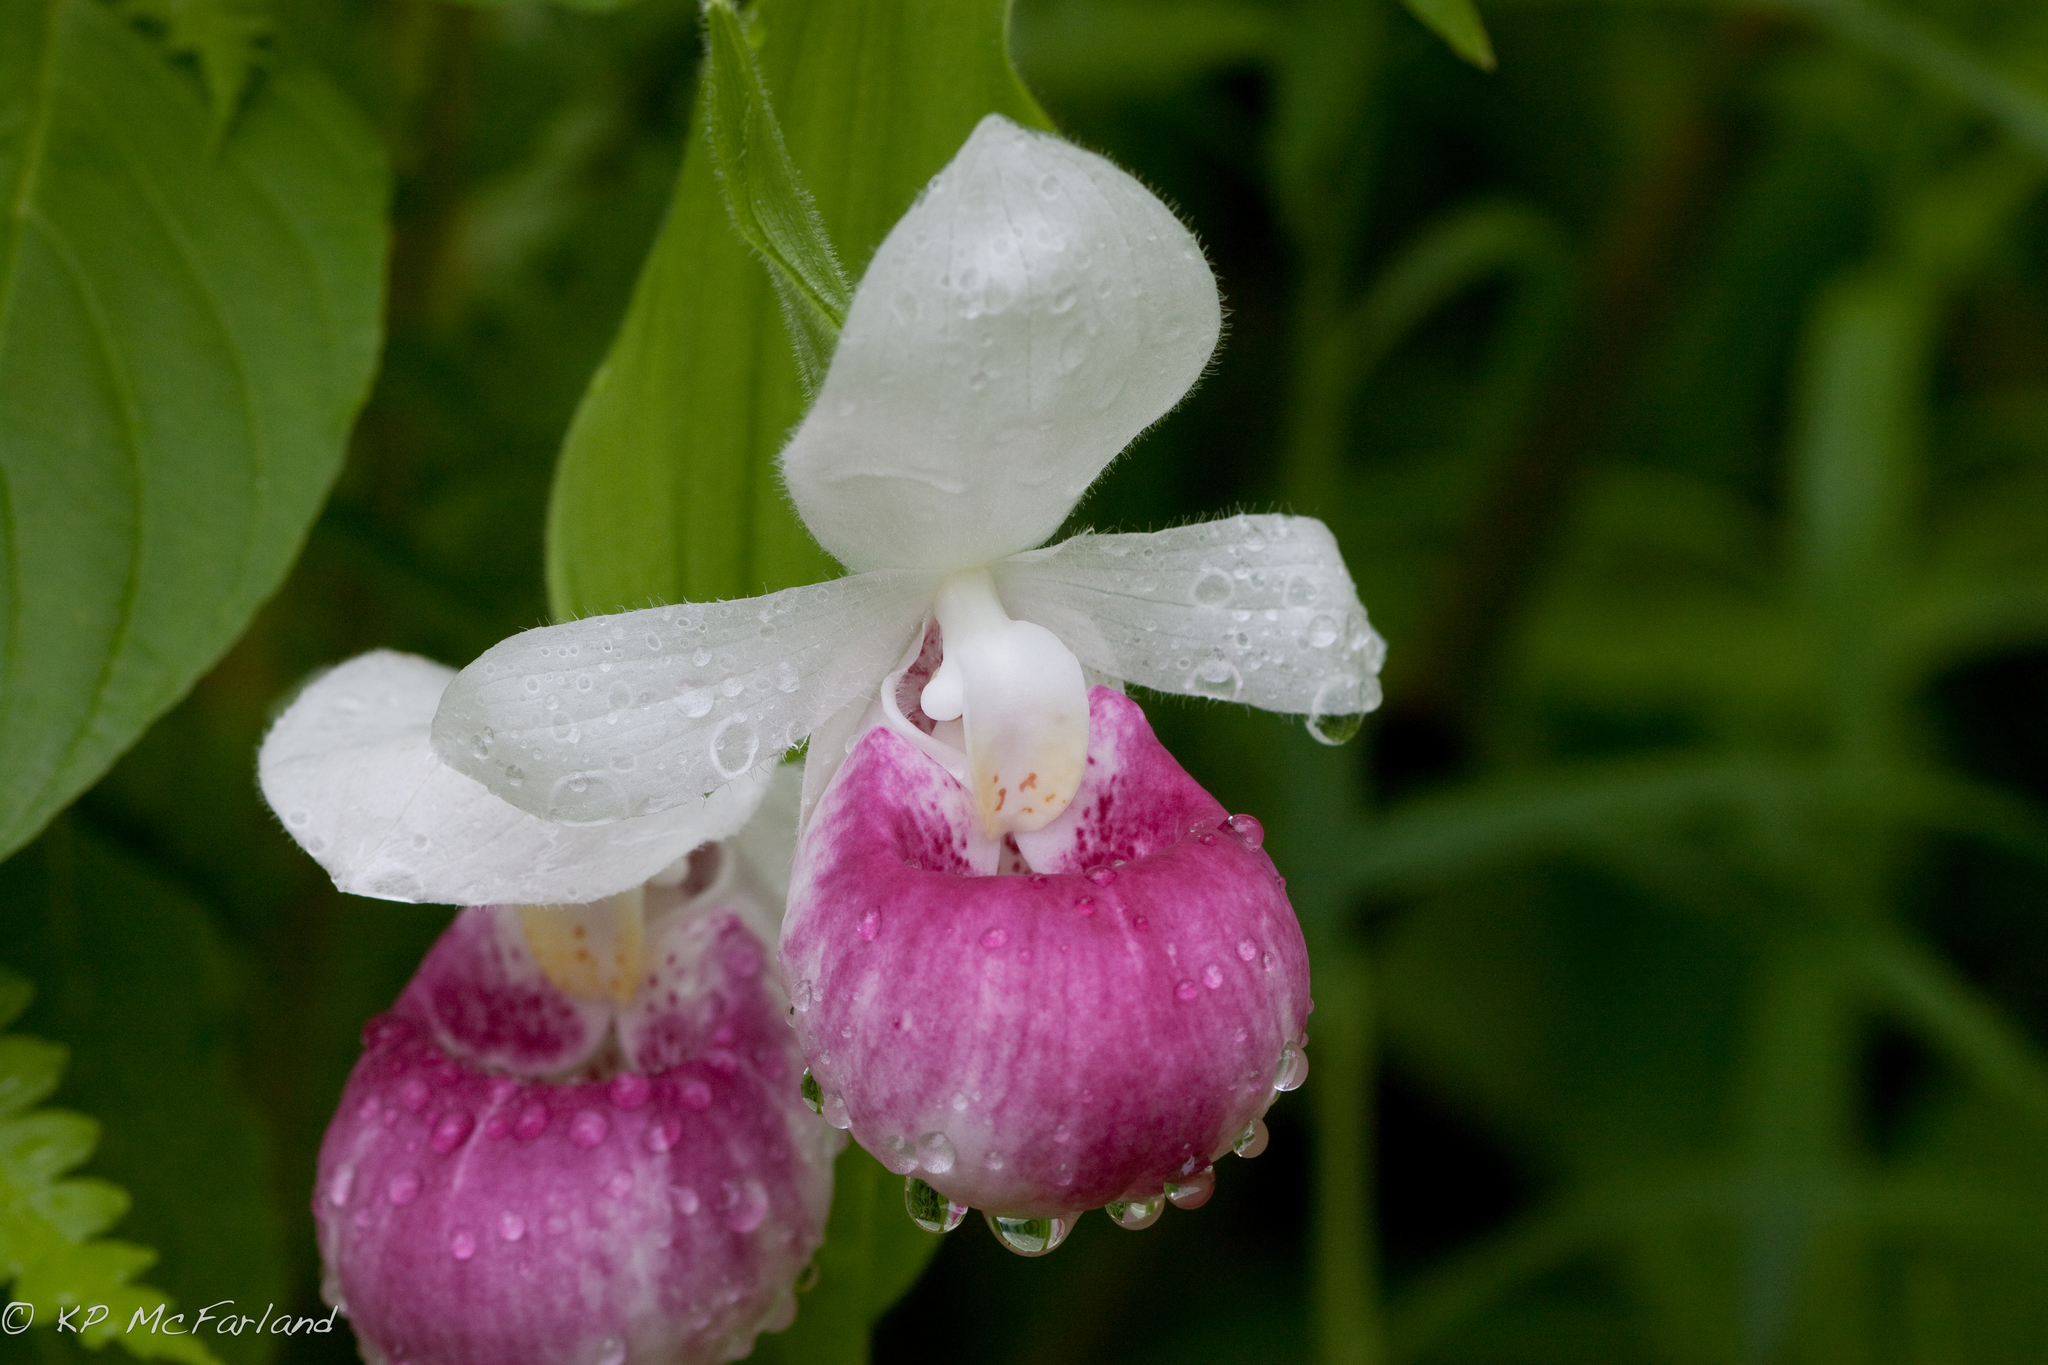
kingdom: Plantae
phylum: Tracheophyta
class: Liliopsida
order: Asparagales
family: Orchidaceae
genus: Cypripedium
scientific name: Cypripedium reginae
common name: Queen lady's-slipper
